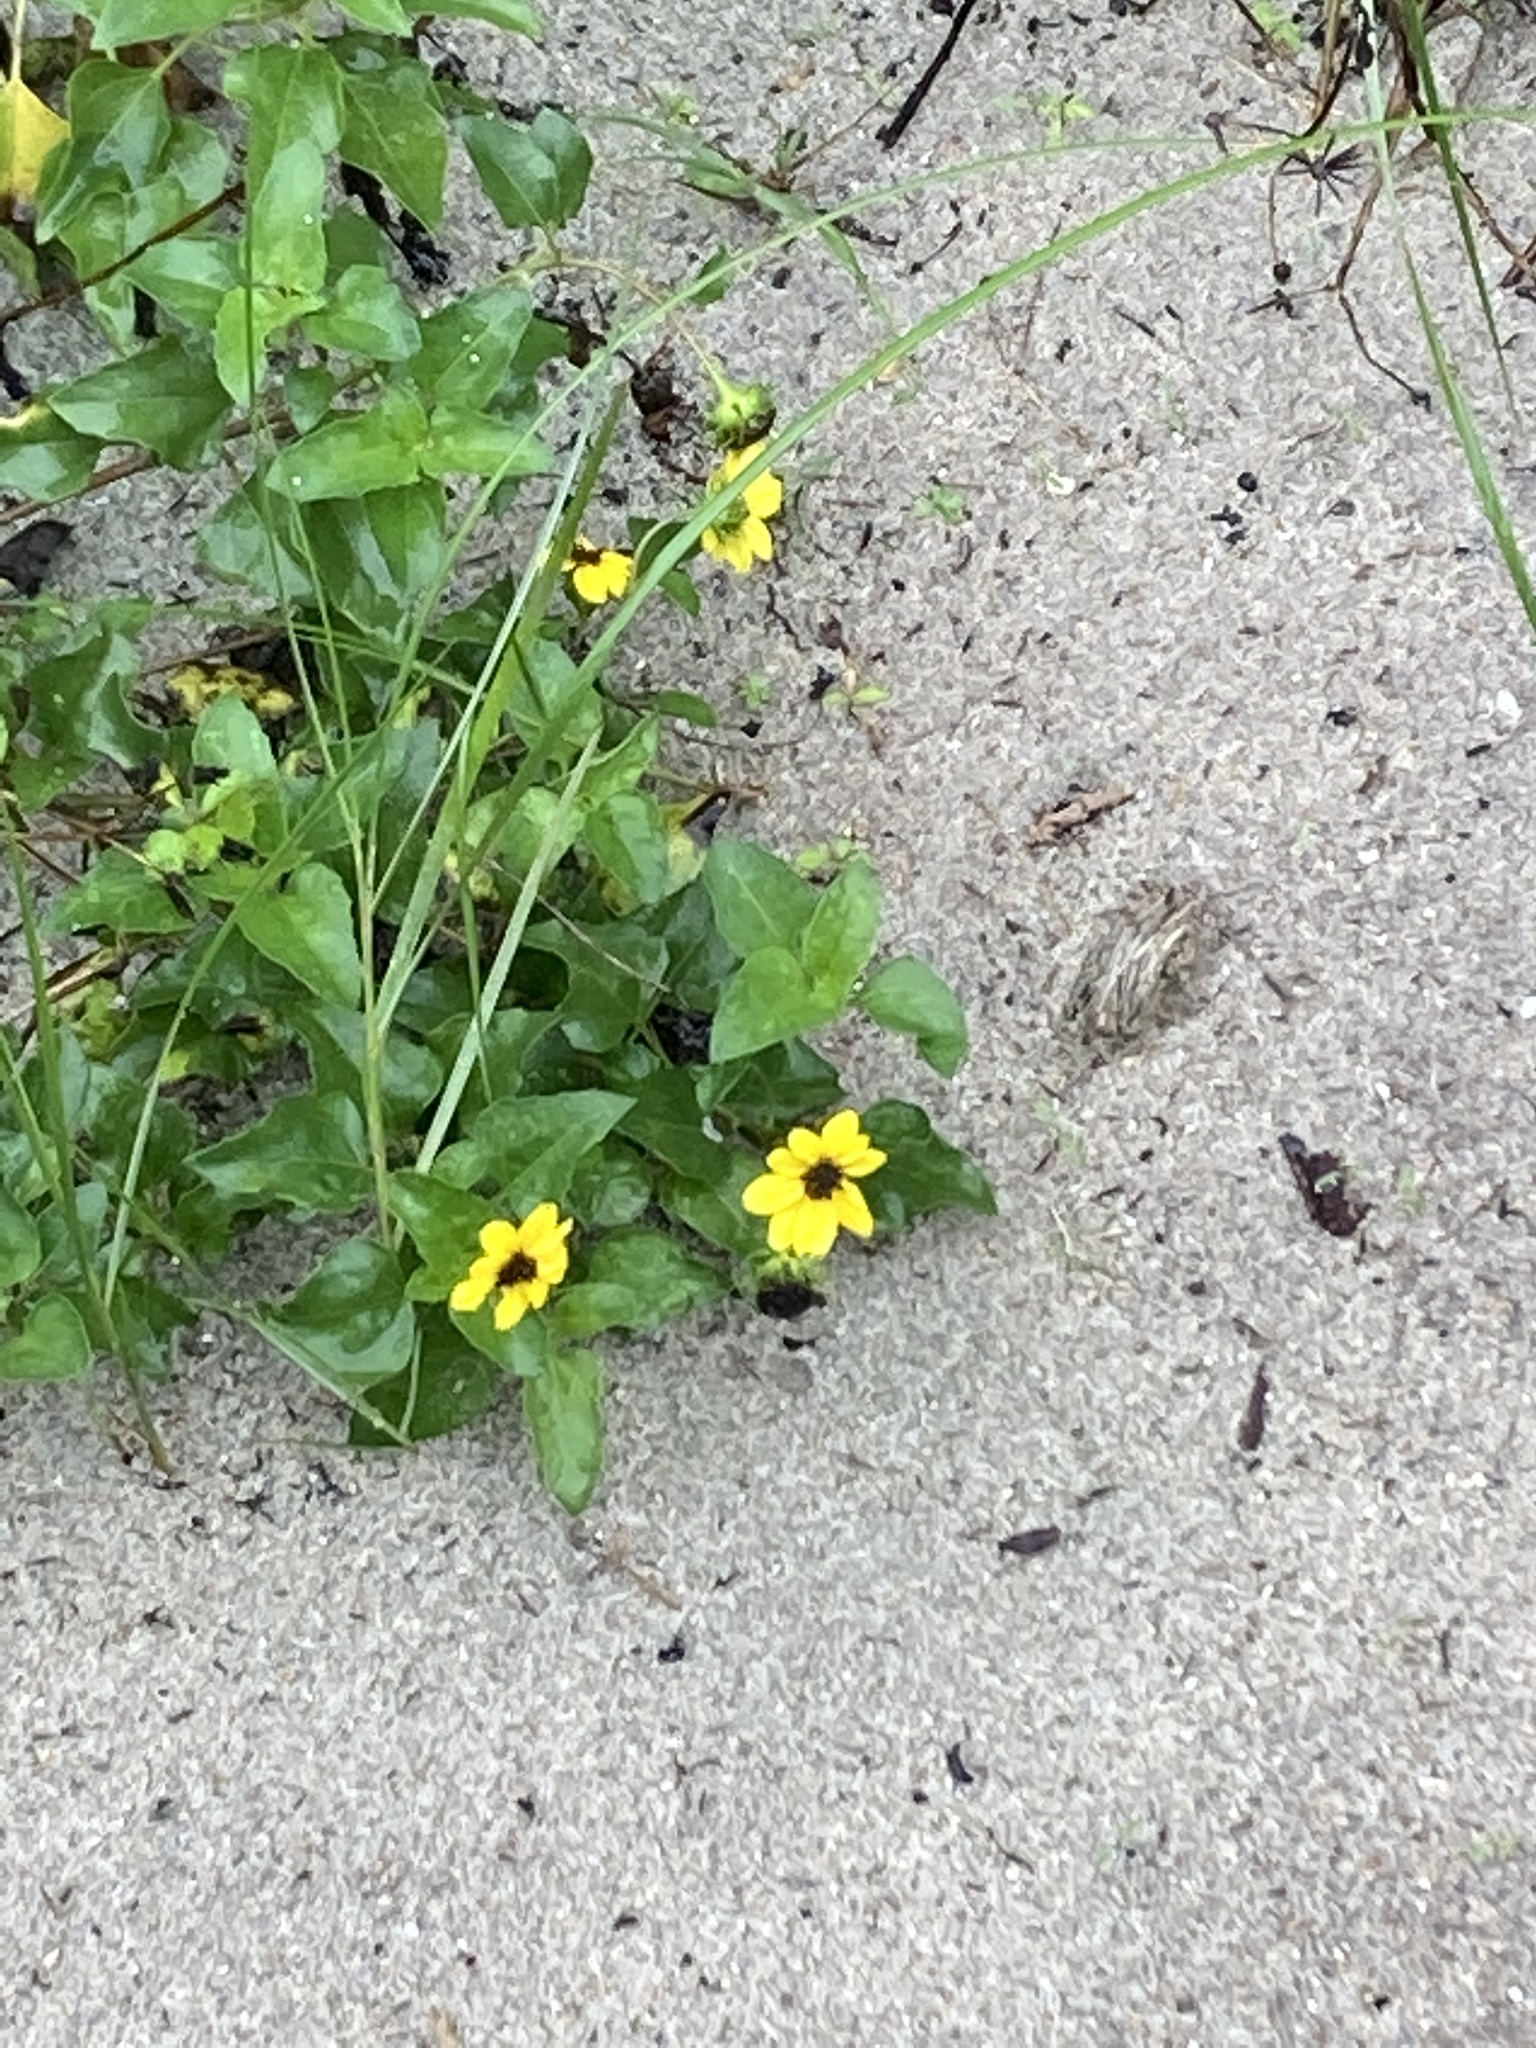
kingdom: Plantae
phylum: Tracheophyta
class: Magnoliopsida
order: Asterales
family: Asteraceae
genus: Helianthus
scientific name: Helianthus debilis
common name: Weak sunflower
